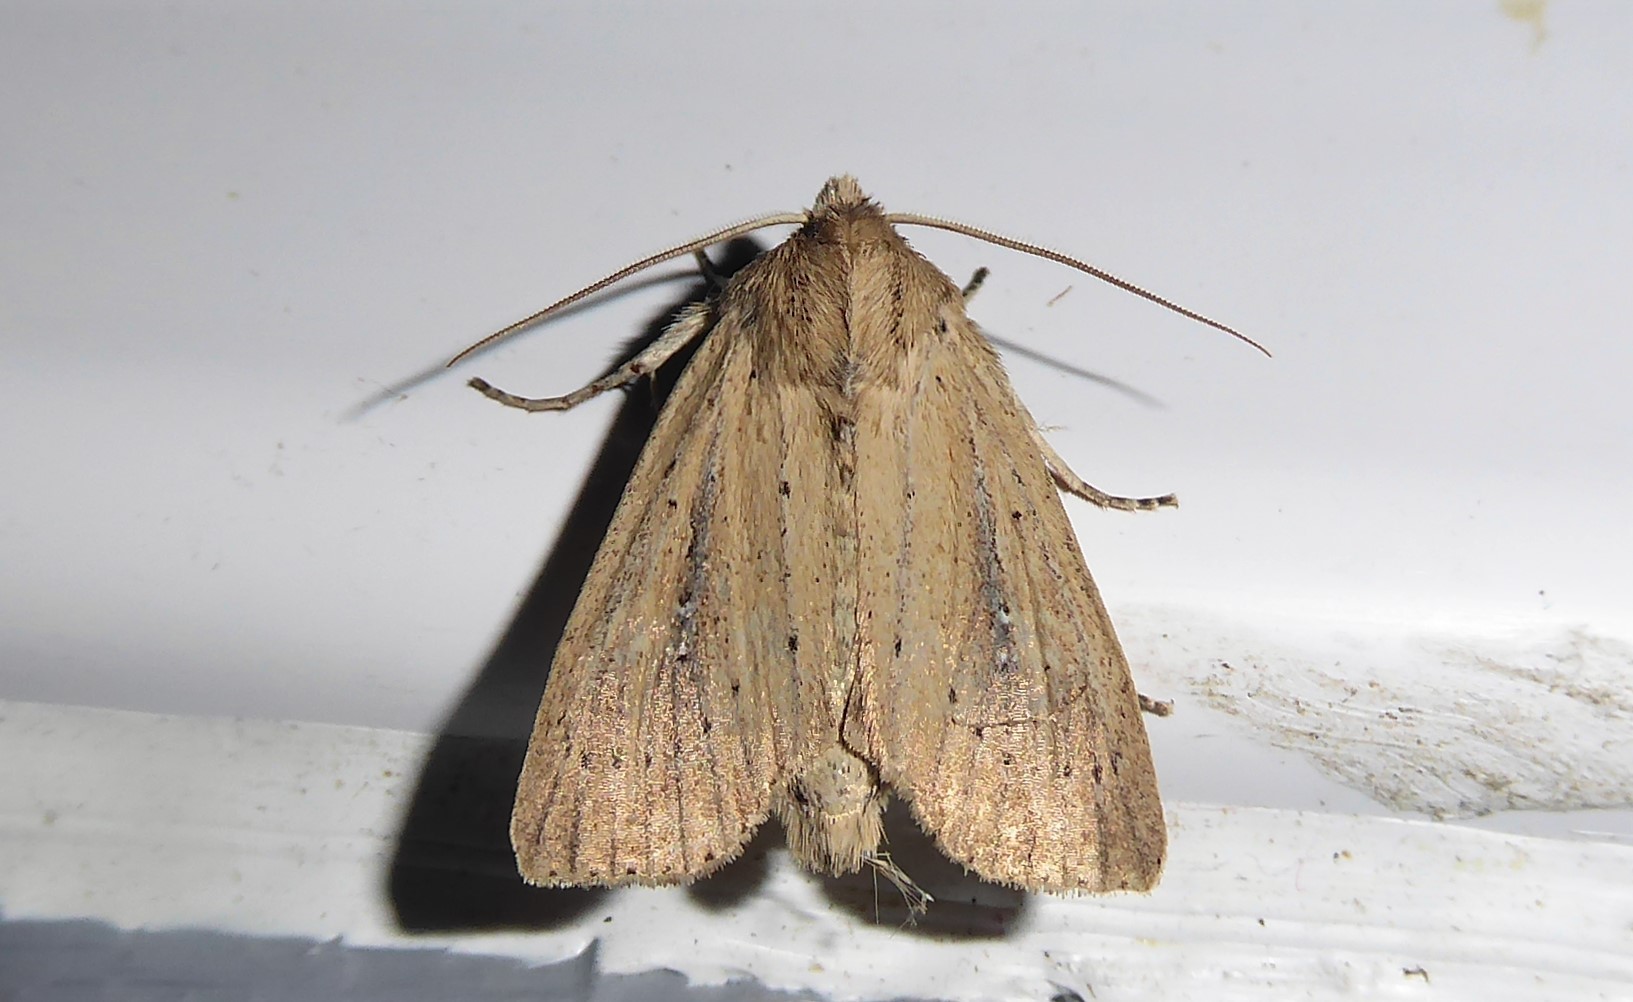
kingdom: Animalia
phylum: Arthropoda
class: Insecta
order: Lepidoptera
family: Noctuidae
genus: Ichneutica
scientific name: Ichneutica
